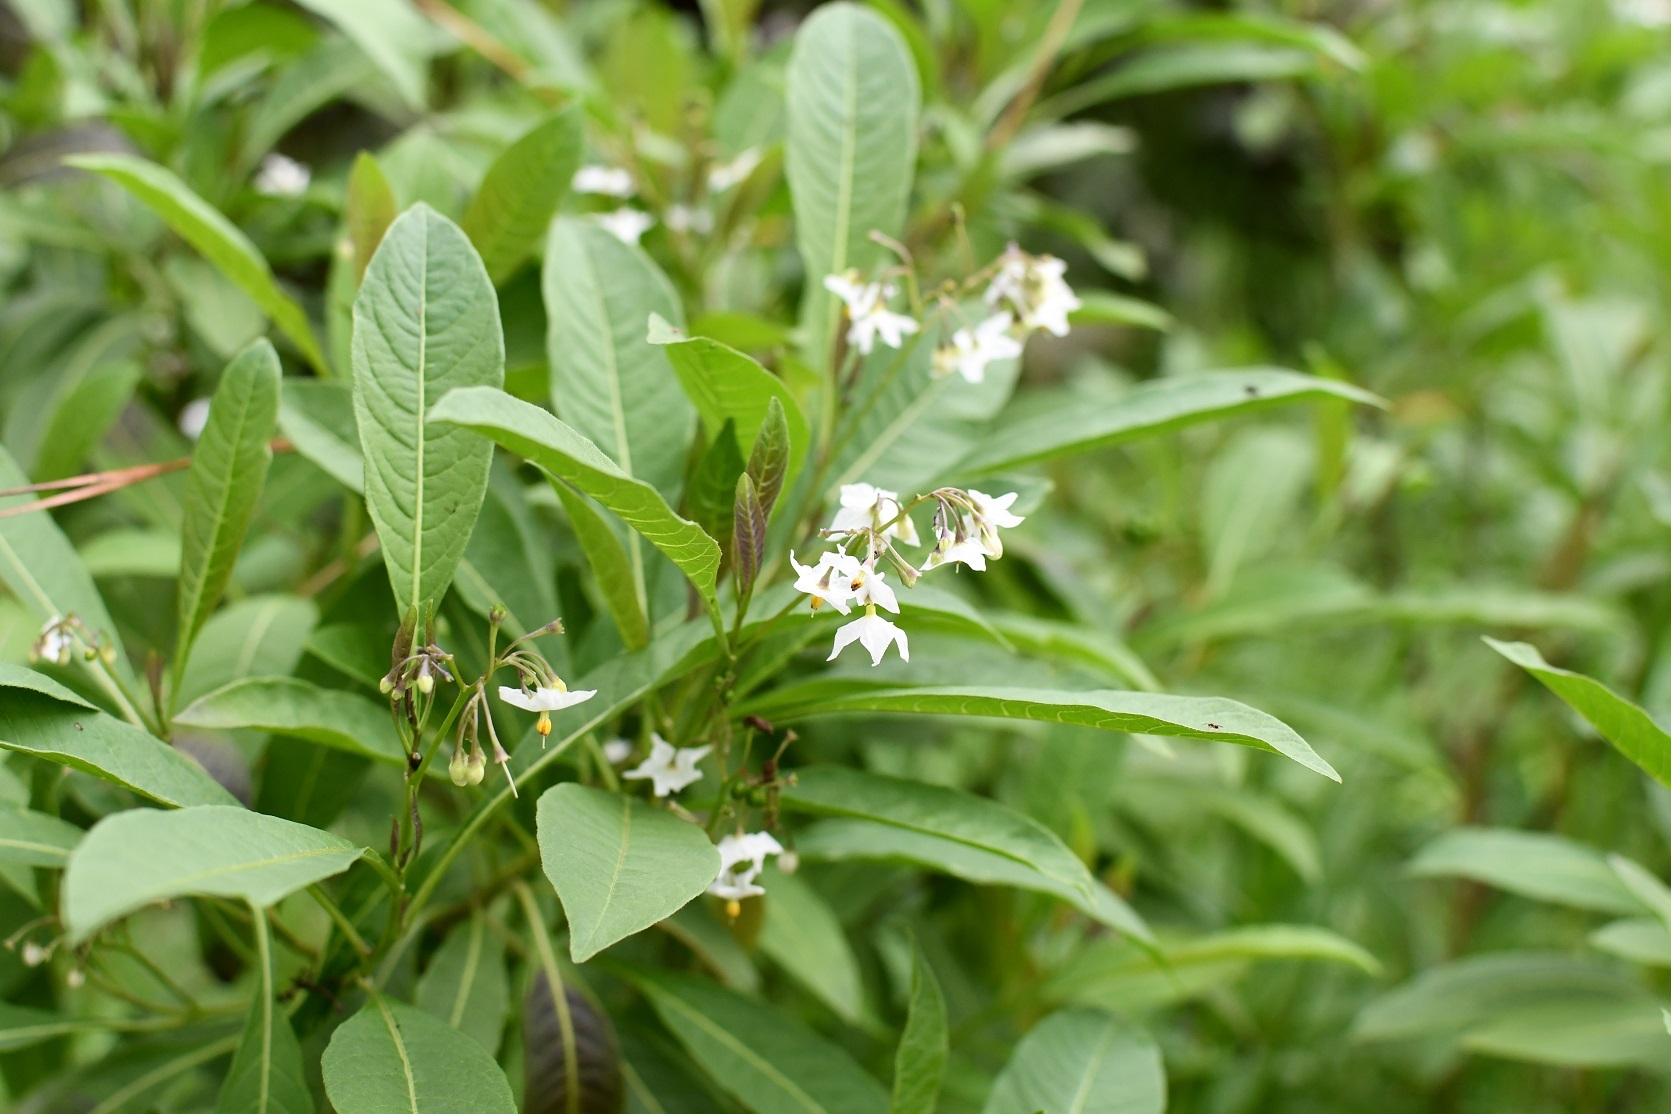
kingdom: Plantae
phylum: Tracheophyta
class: Magnoliopsida
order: Solanales
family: Solanaceae
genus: Solanum
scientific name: Solanum pubigerum
